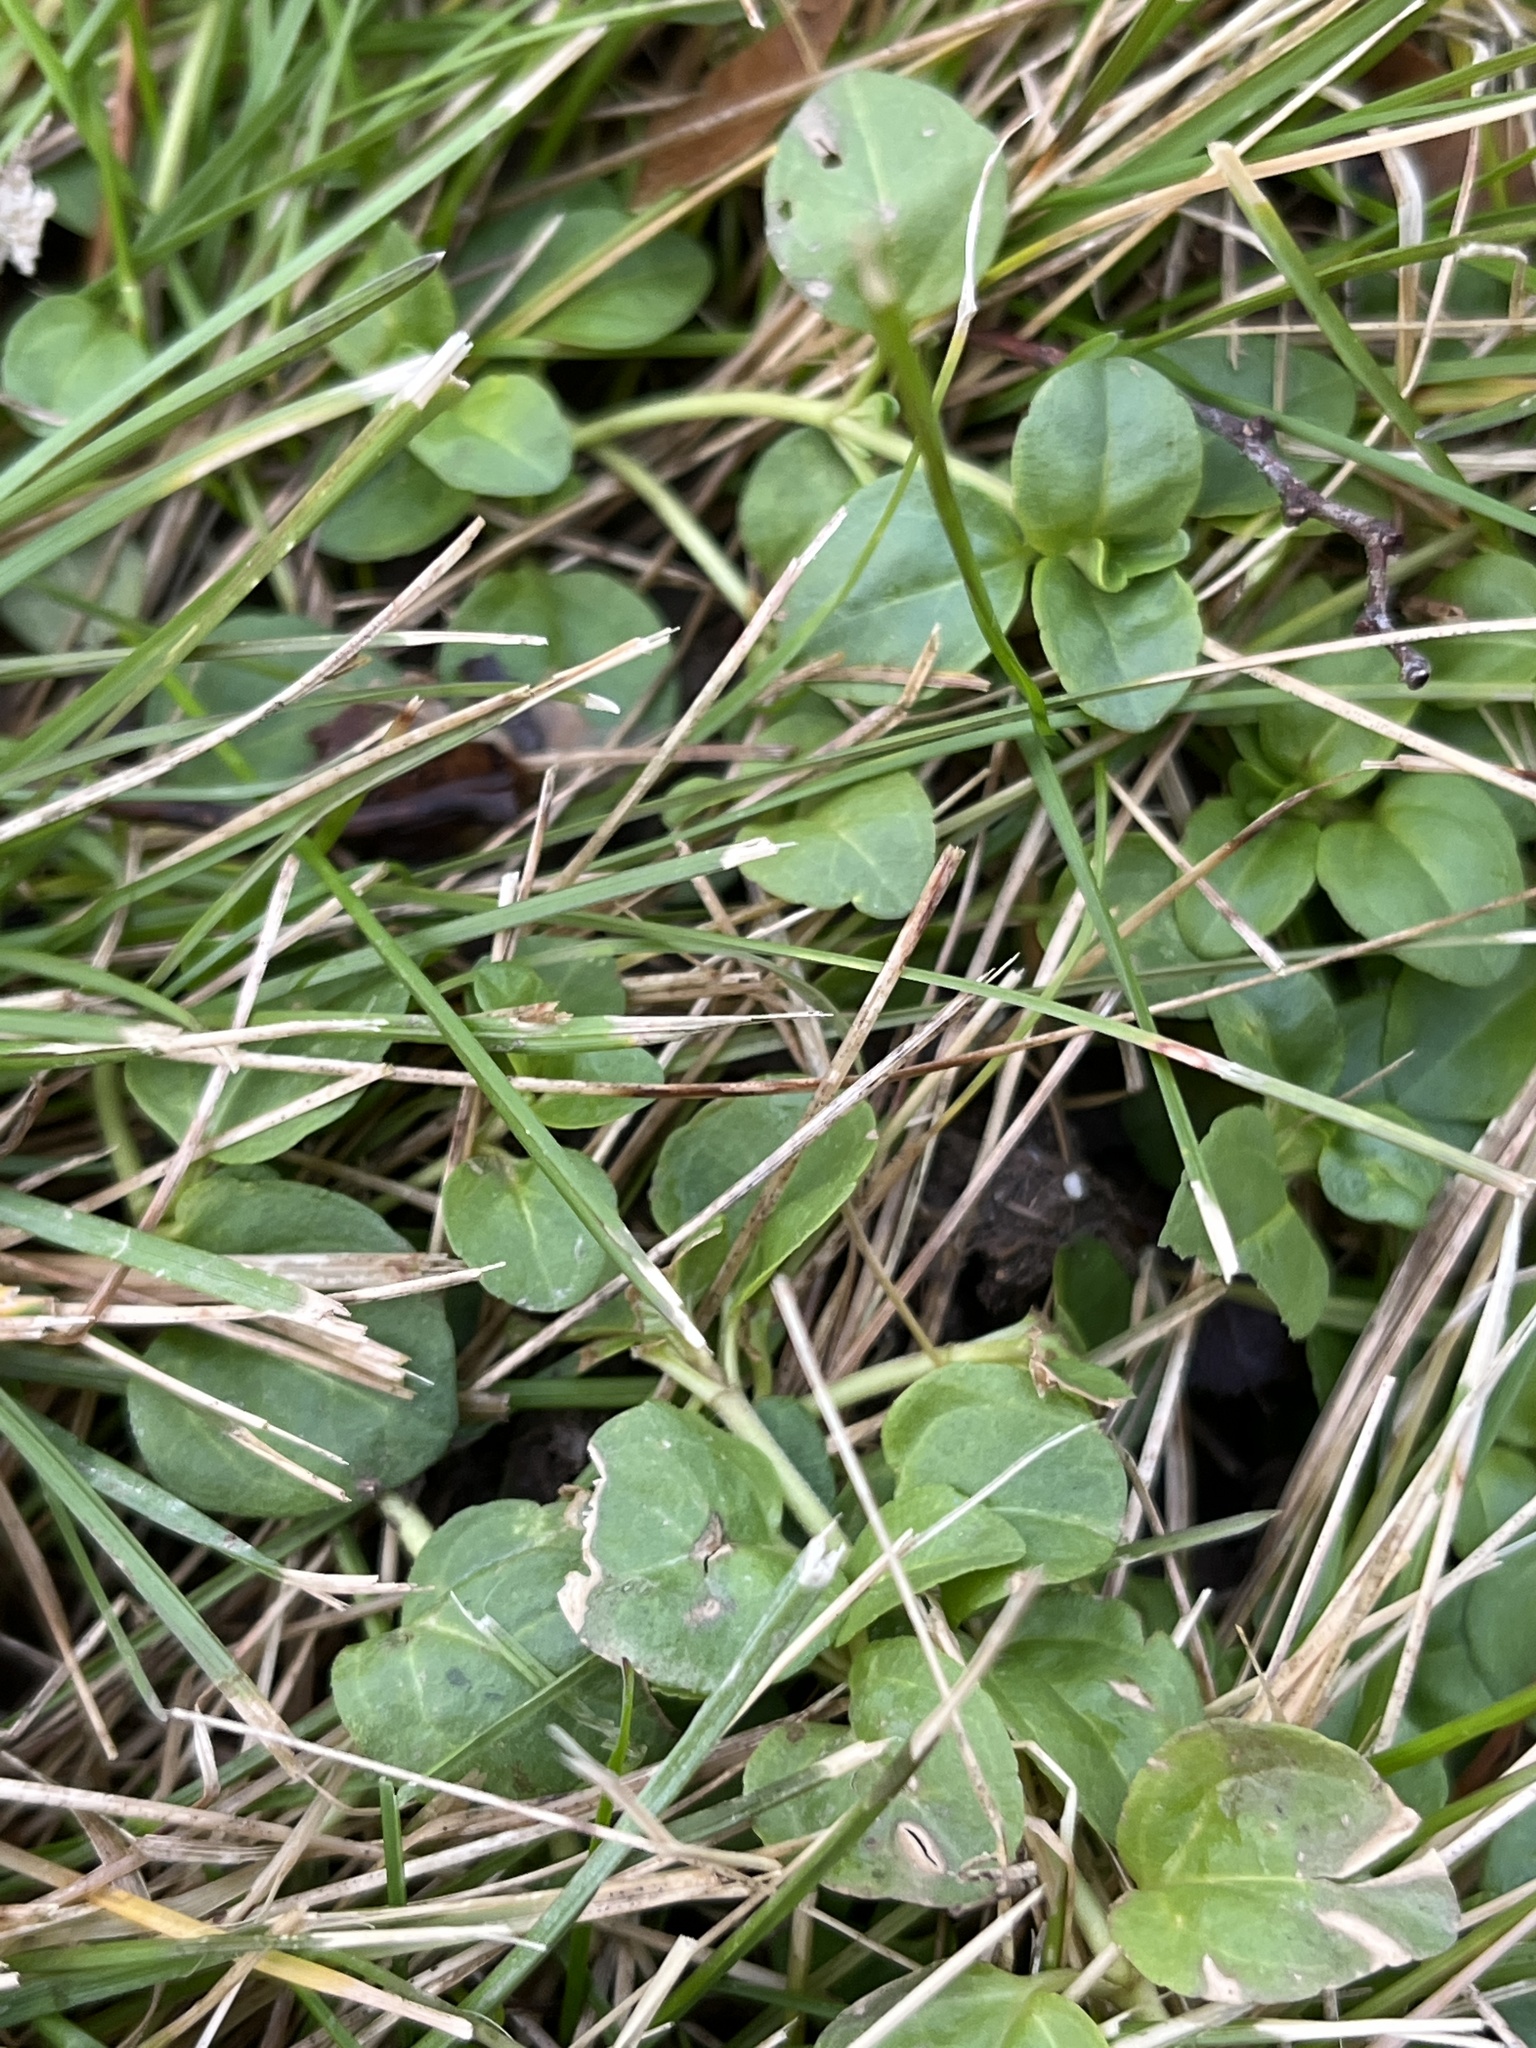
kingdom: Plantae
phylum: Tracheophyta
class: Magnoliopsida
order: Fabales
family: Fabaceae
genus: Trifolium
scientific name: Trifolium repens
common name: White clover
